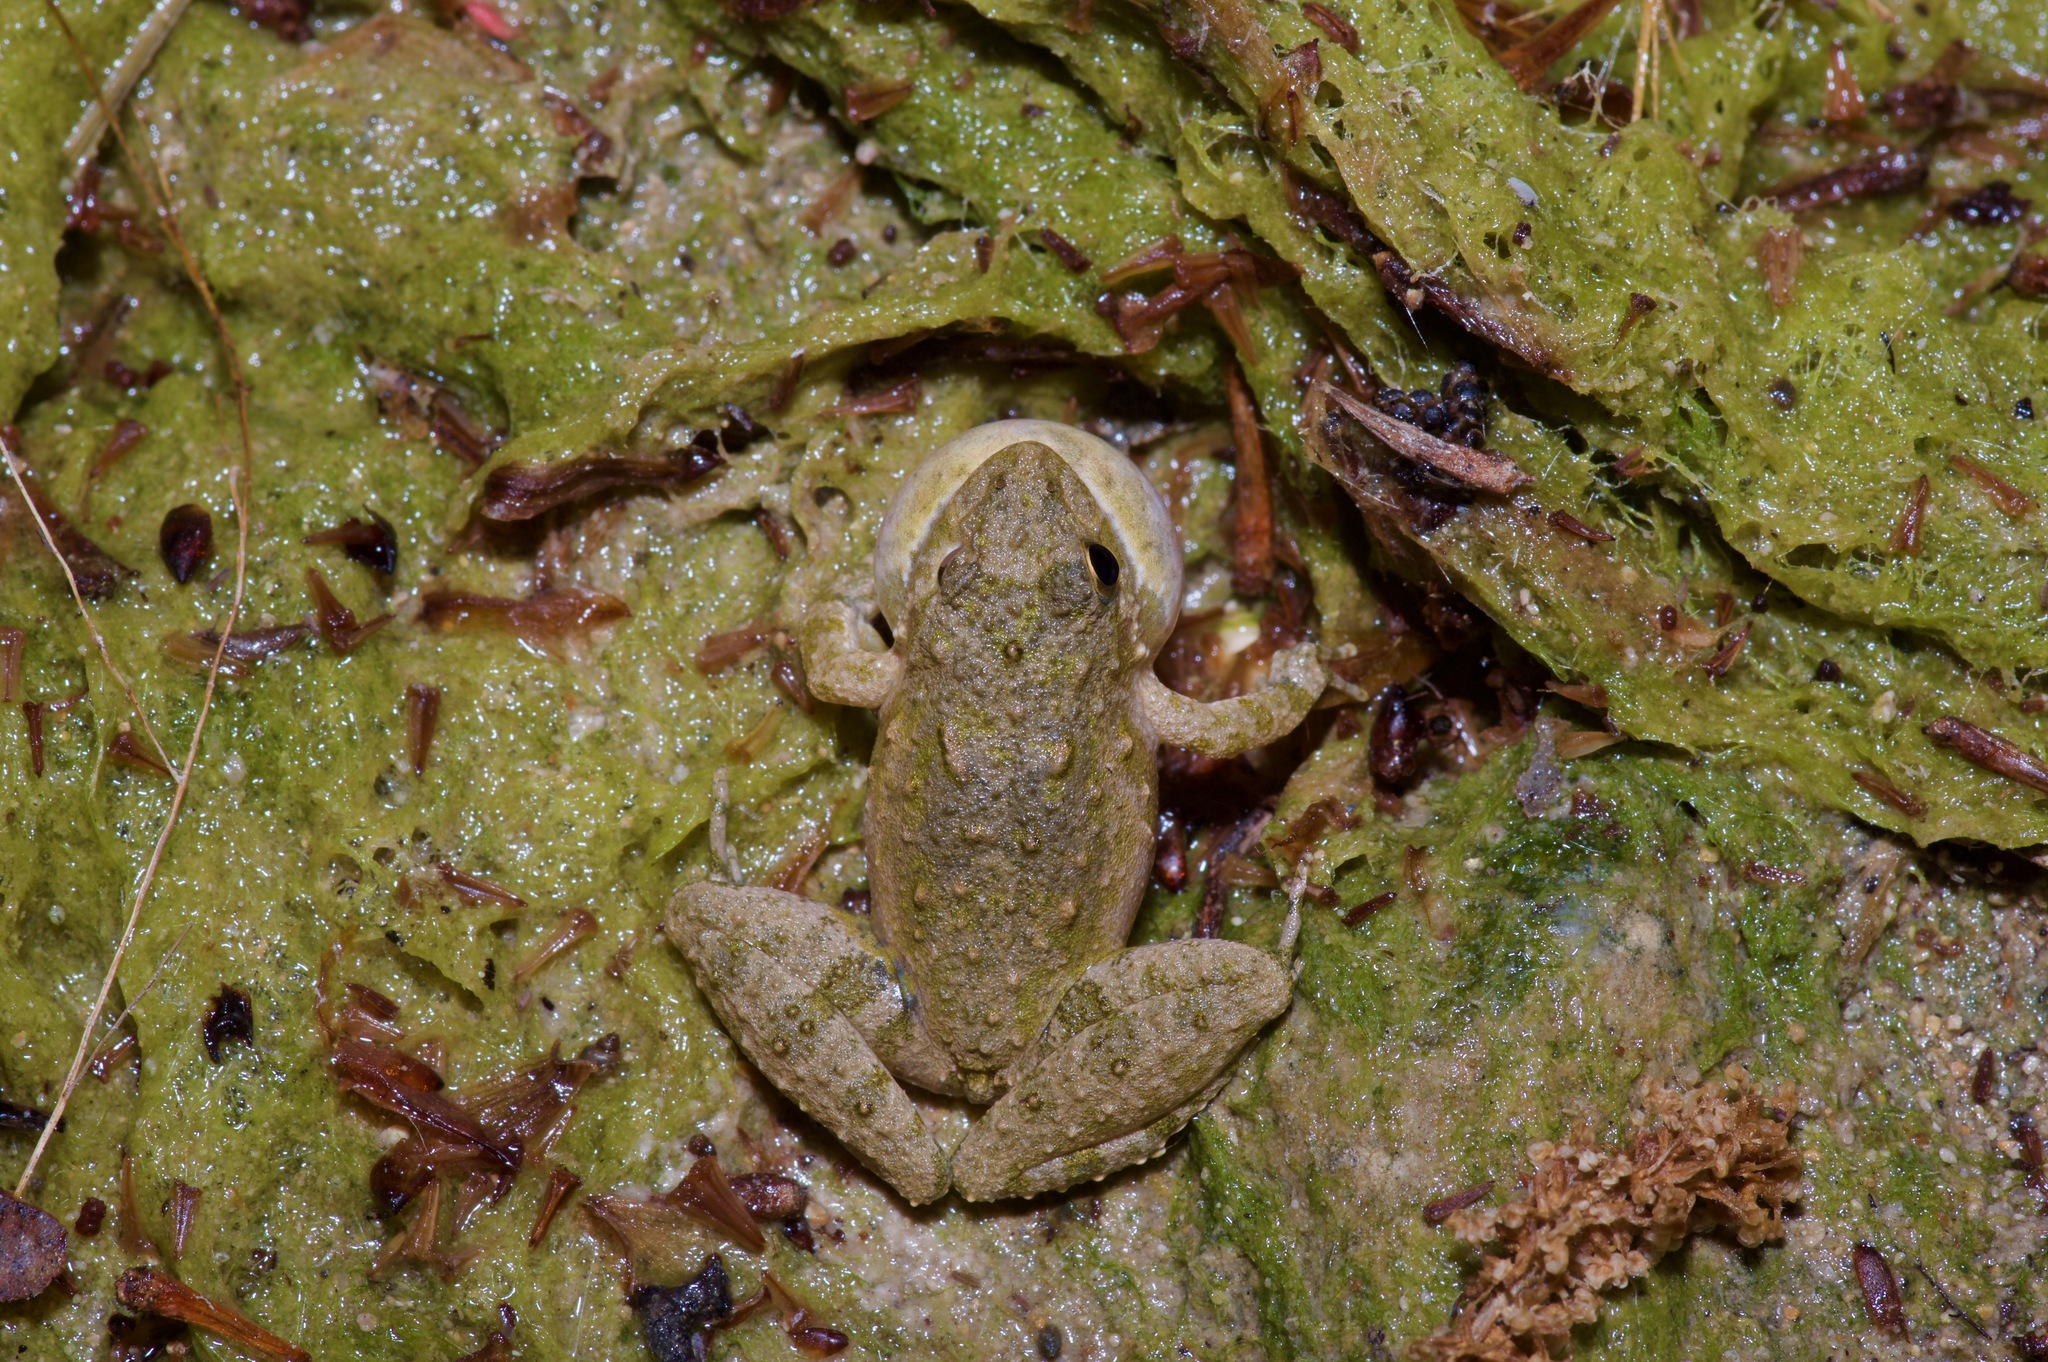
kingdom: Animalia
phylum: Chordata
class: Amphibia
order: Anura
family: Hylidae
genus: Acris
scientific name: Acris blanchardi
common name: Blanchard's cricket frog
